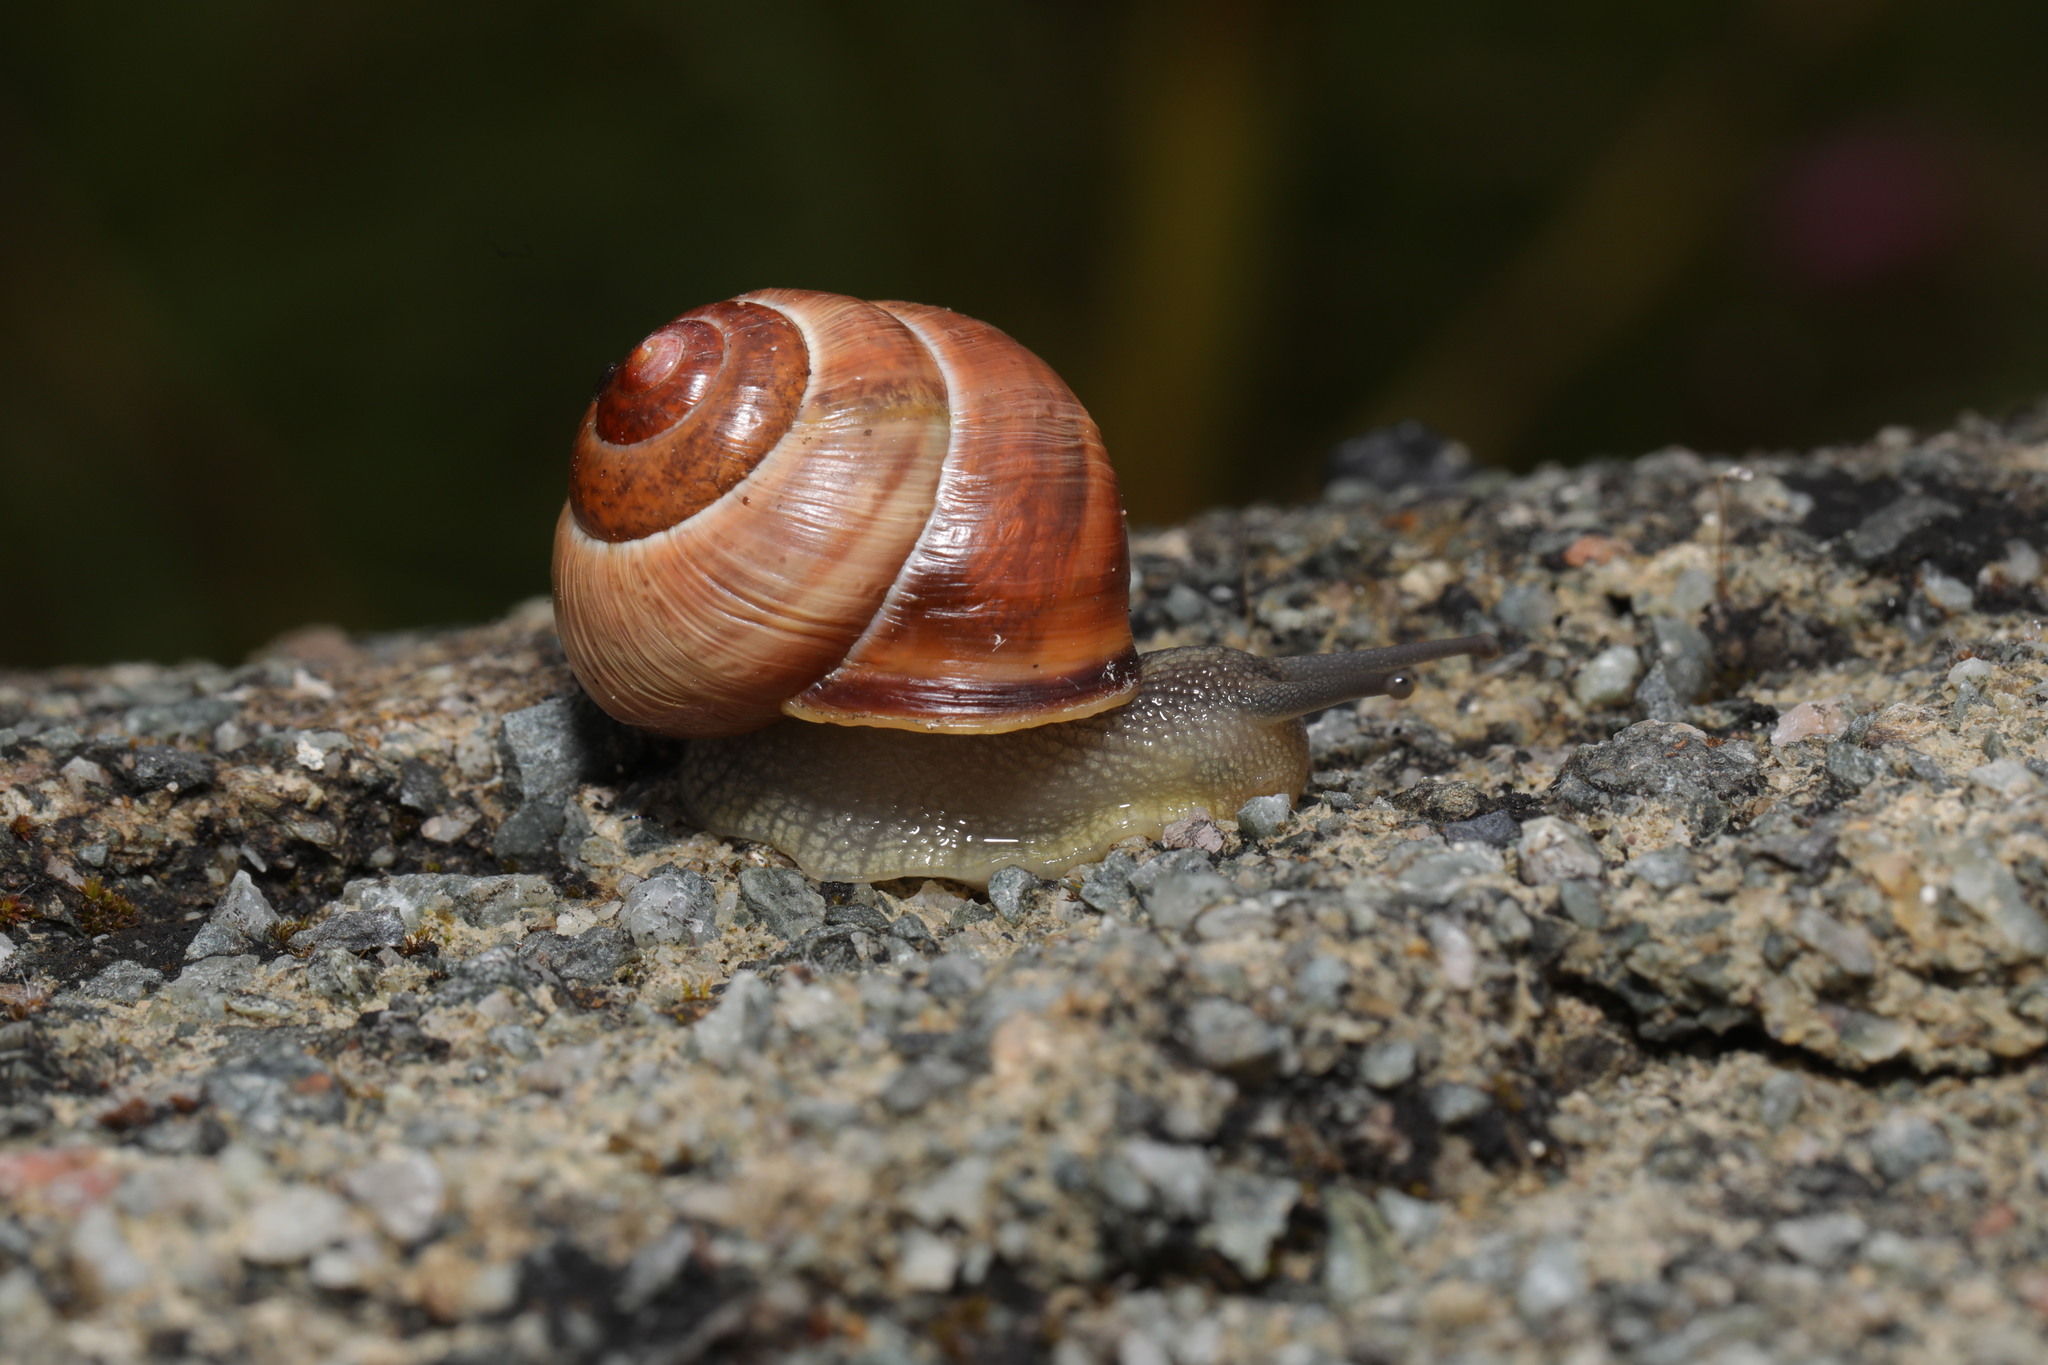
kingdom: Animalia
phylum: Mollusca
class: Gastropoda
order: Stylommatophora
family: Helicidae
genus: Cepaea
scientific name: Cepaea nemoralis
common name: Grovesnail
